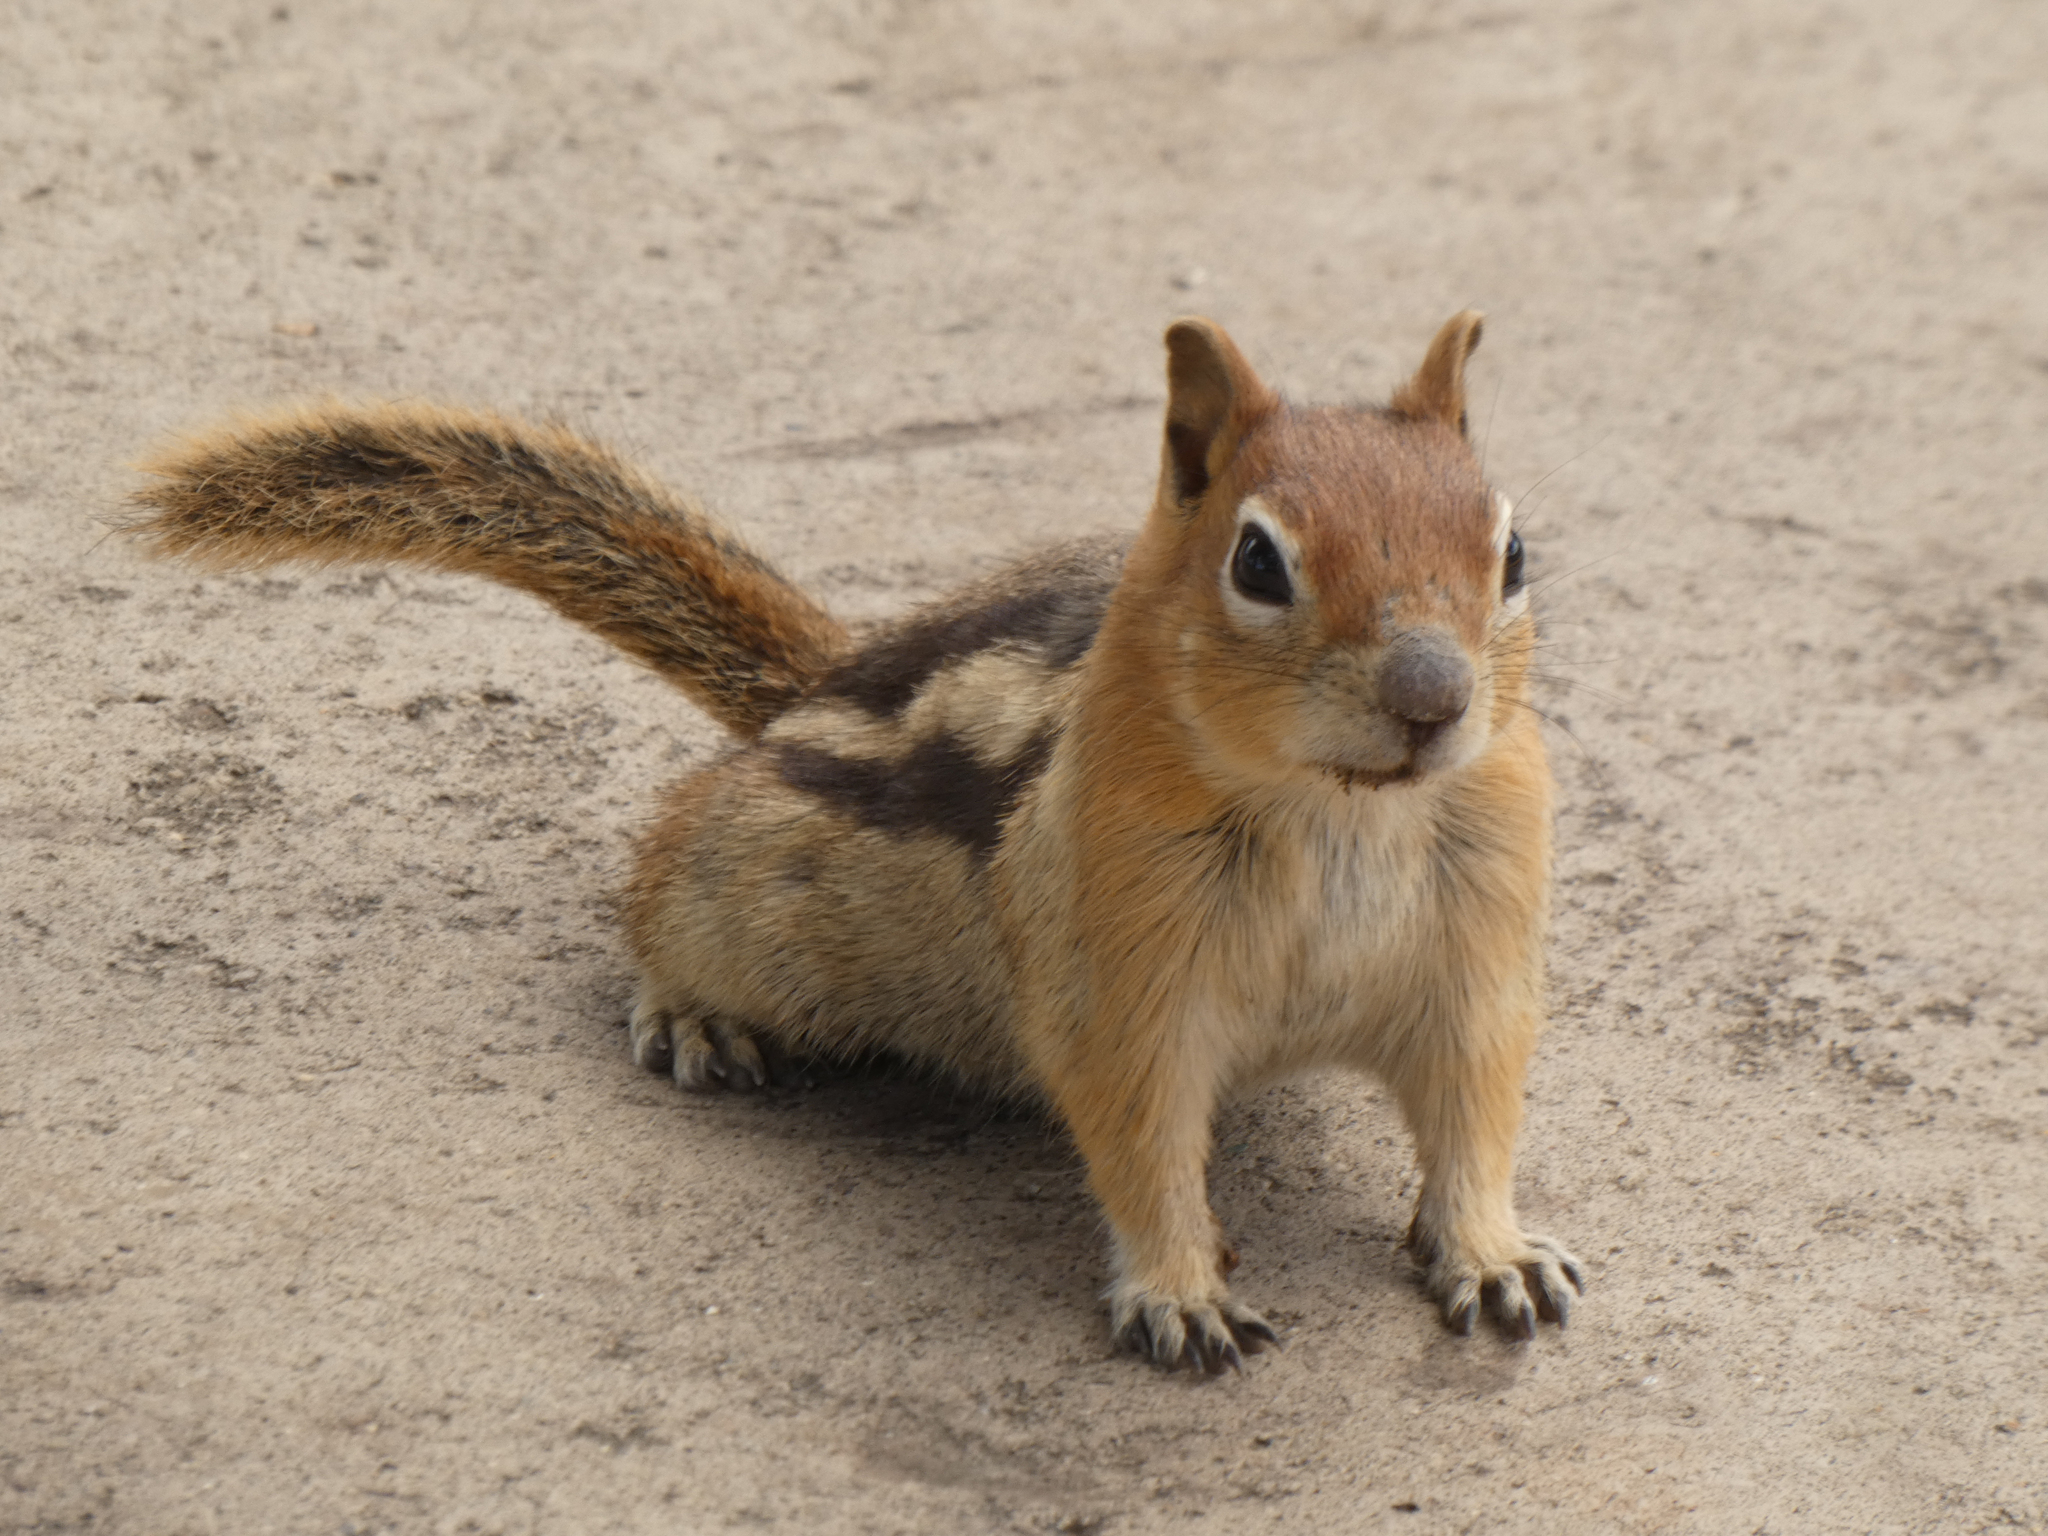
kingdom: Animalia
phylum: Chordata
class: Mammalia
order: Rodentia
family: Sciuridae
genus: Callospermophilus
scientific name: Callospermophilus lateralis
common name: Golden-mantled ground squirrel
